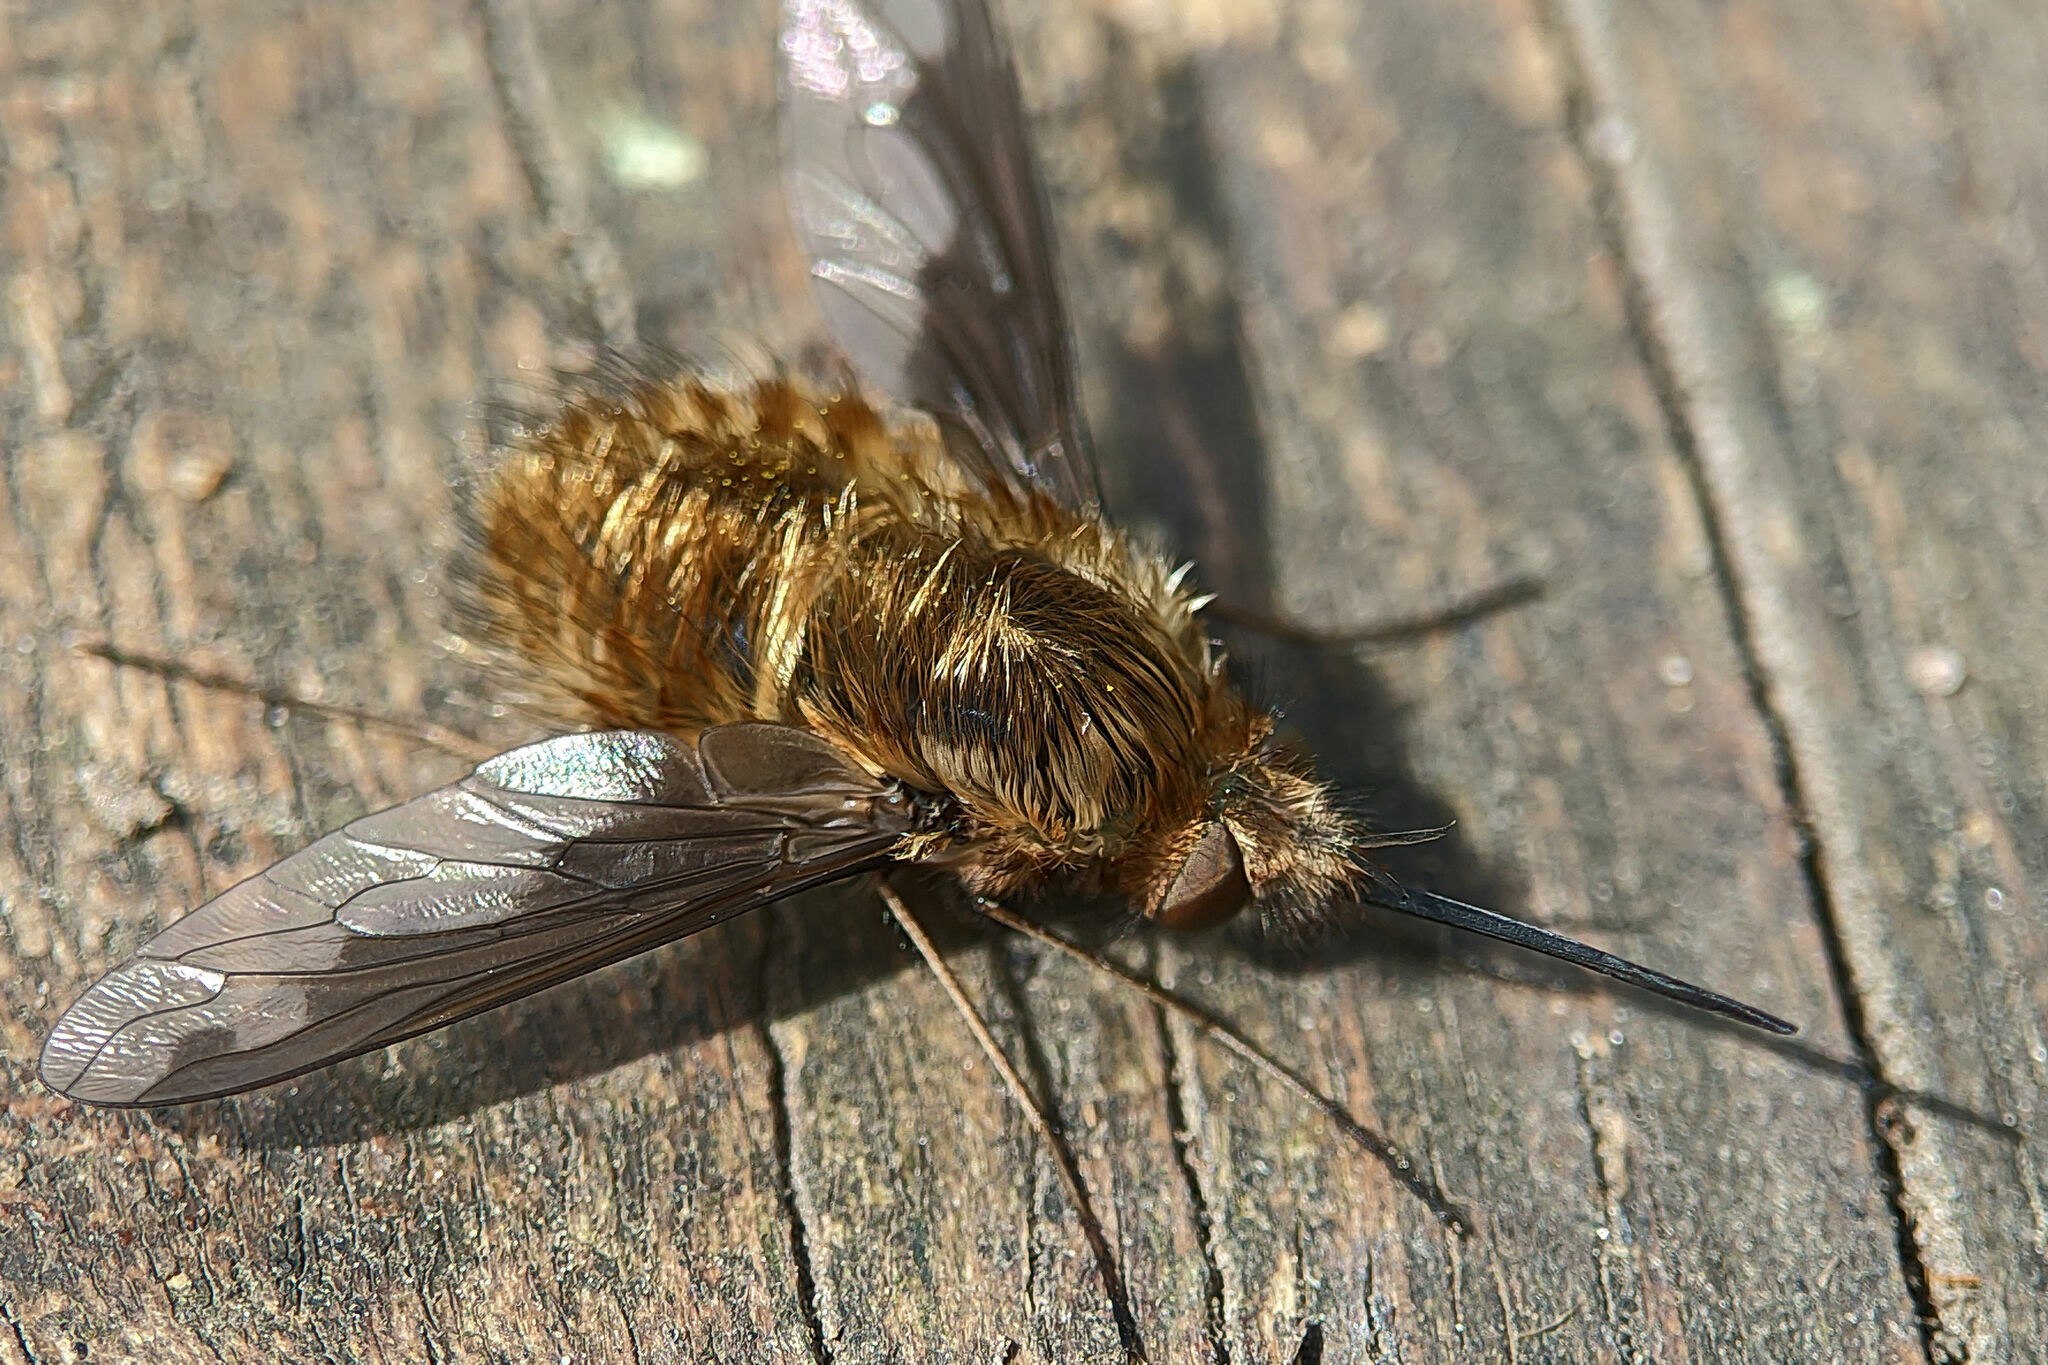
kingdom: Animalia
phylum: Arthropoda
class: Insecta
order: Diptera
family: Bombyliidae
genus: Bombylius
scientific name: Bombylius major
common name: Bee fly
